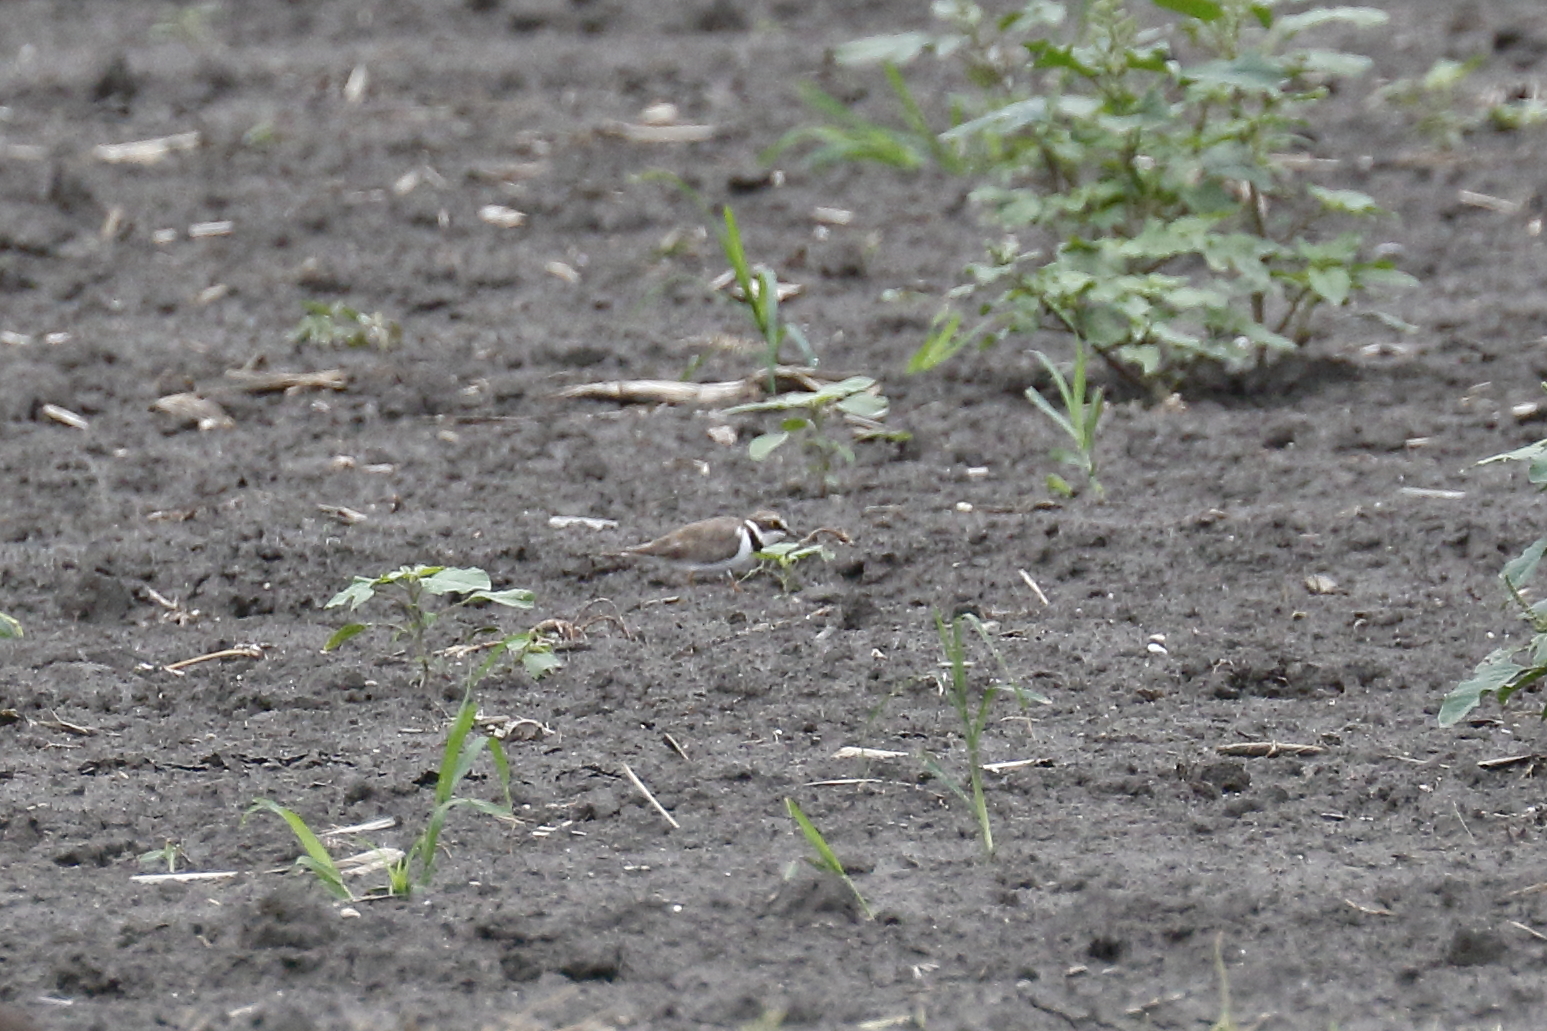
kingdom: Animalia
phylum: Chordata
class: Aves
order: Charadriiformes
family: Charadriidae
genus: Charadrius
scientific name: Charadrius dubius
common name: Little ringed plover
